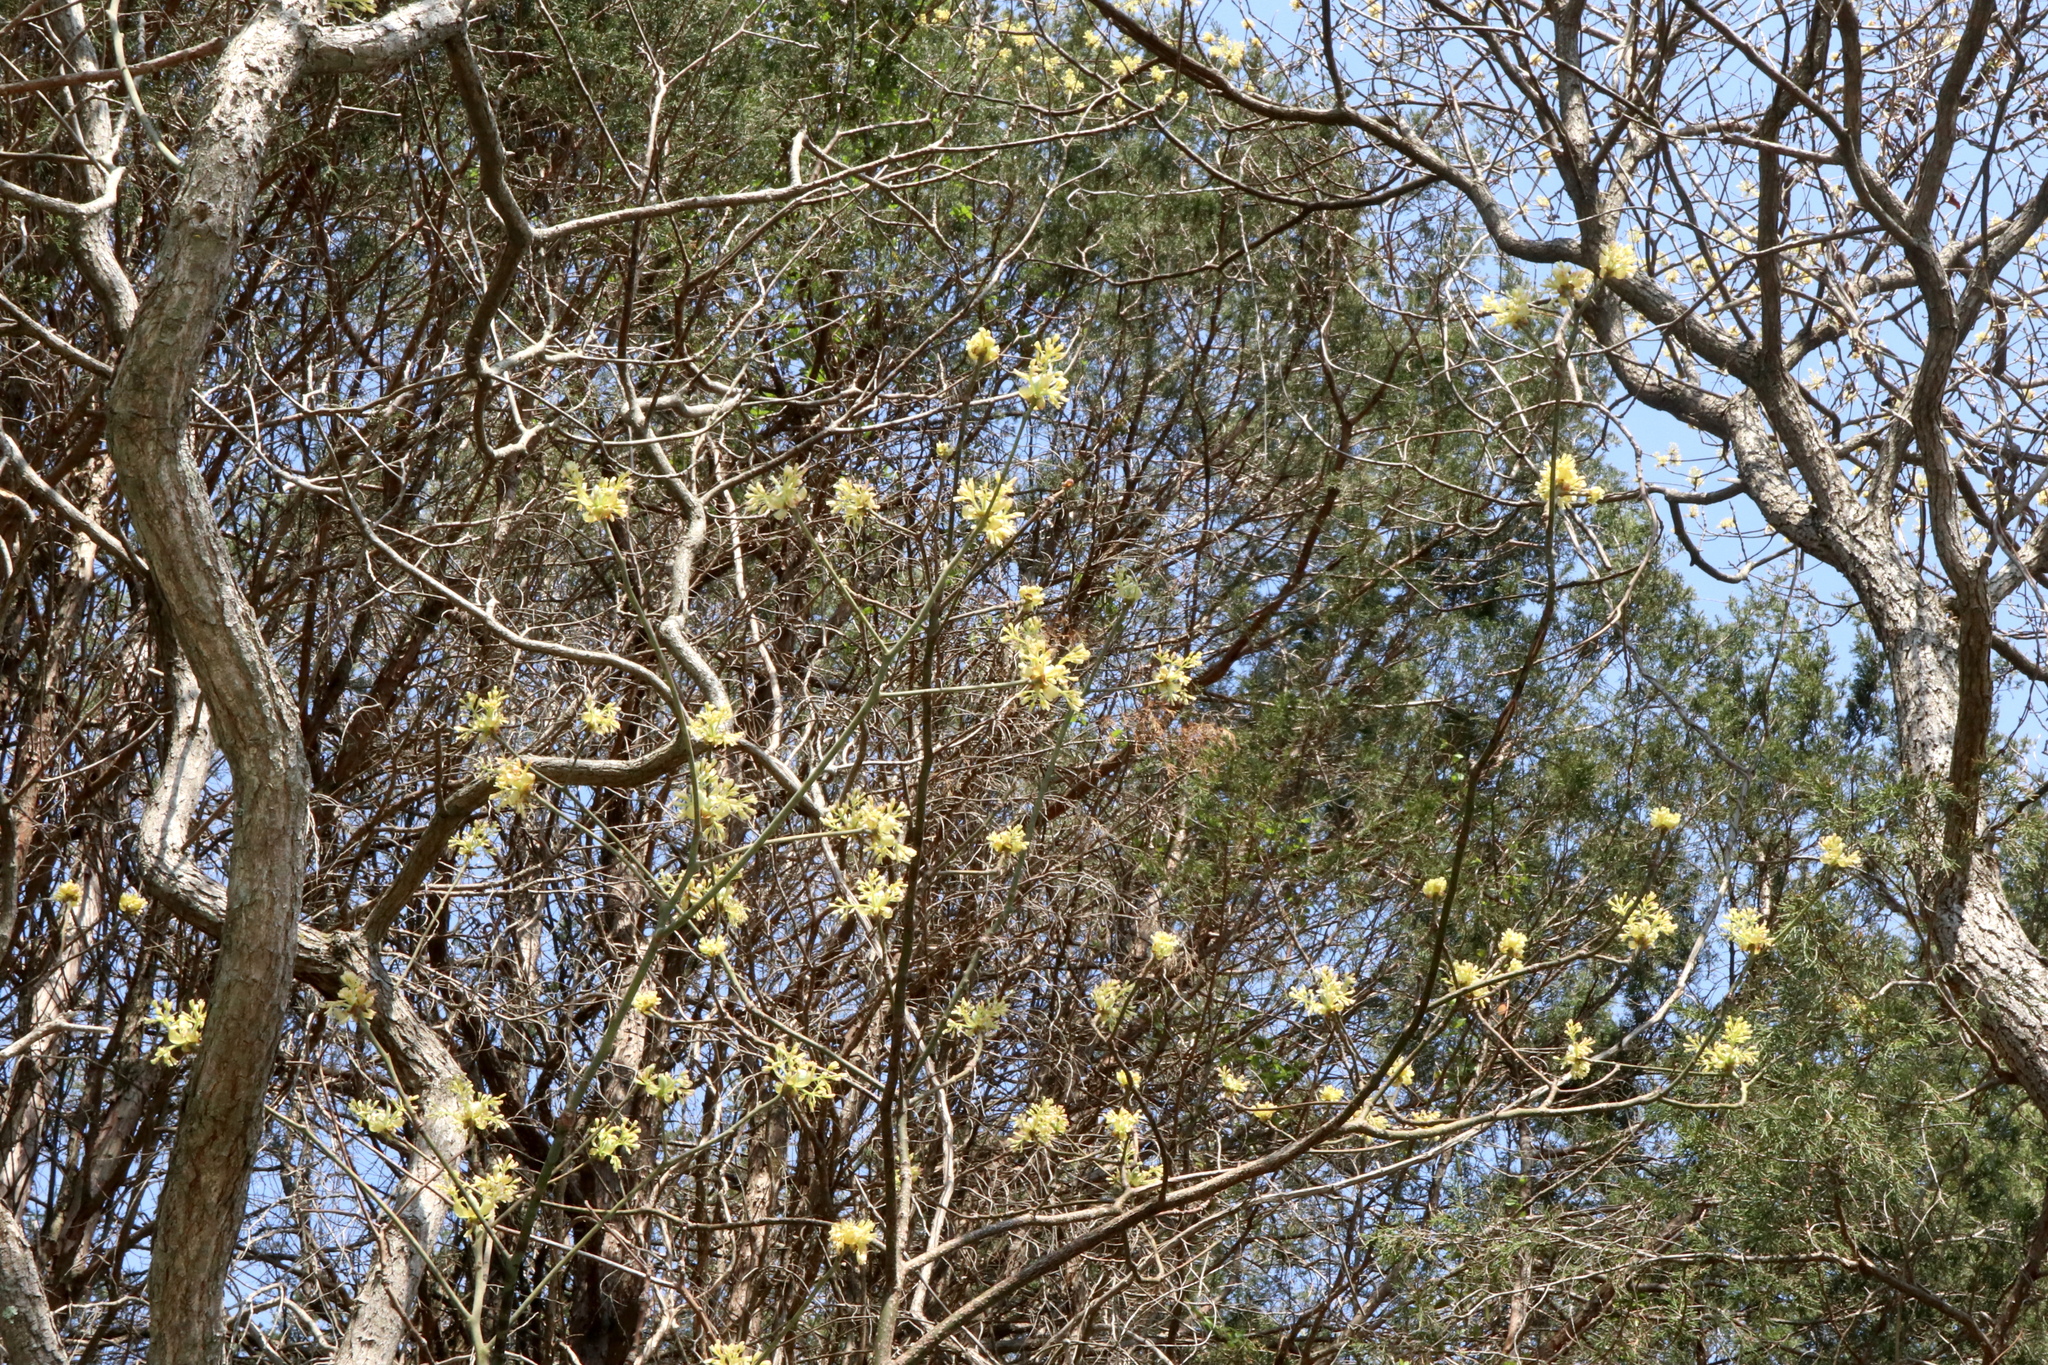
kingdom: Plantae
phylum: Tracheophyta
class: Magnoliopsida
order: Laurales
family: Lauraceae
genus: Sassafras
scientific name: Sassafras albidum
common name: Sassafras
